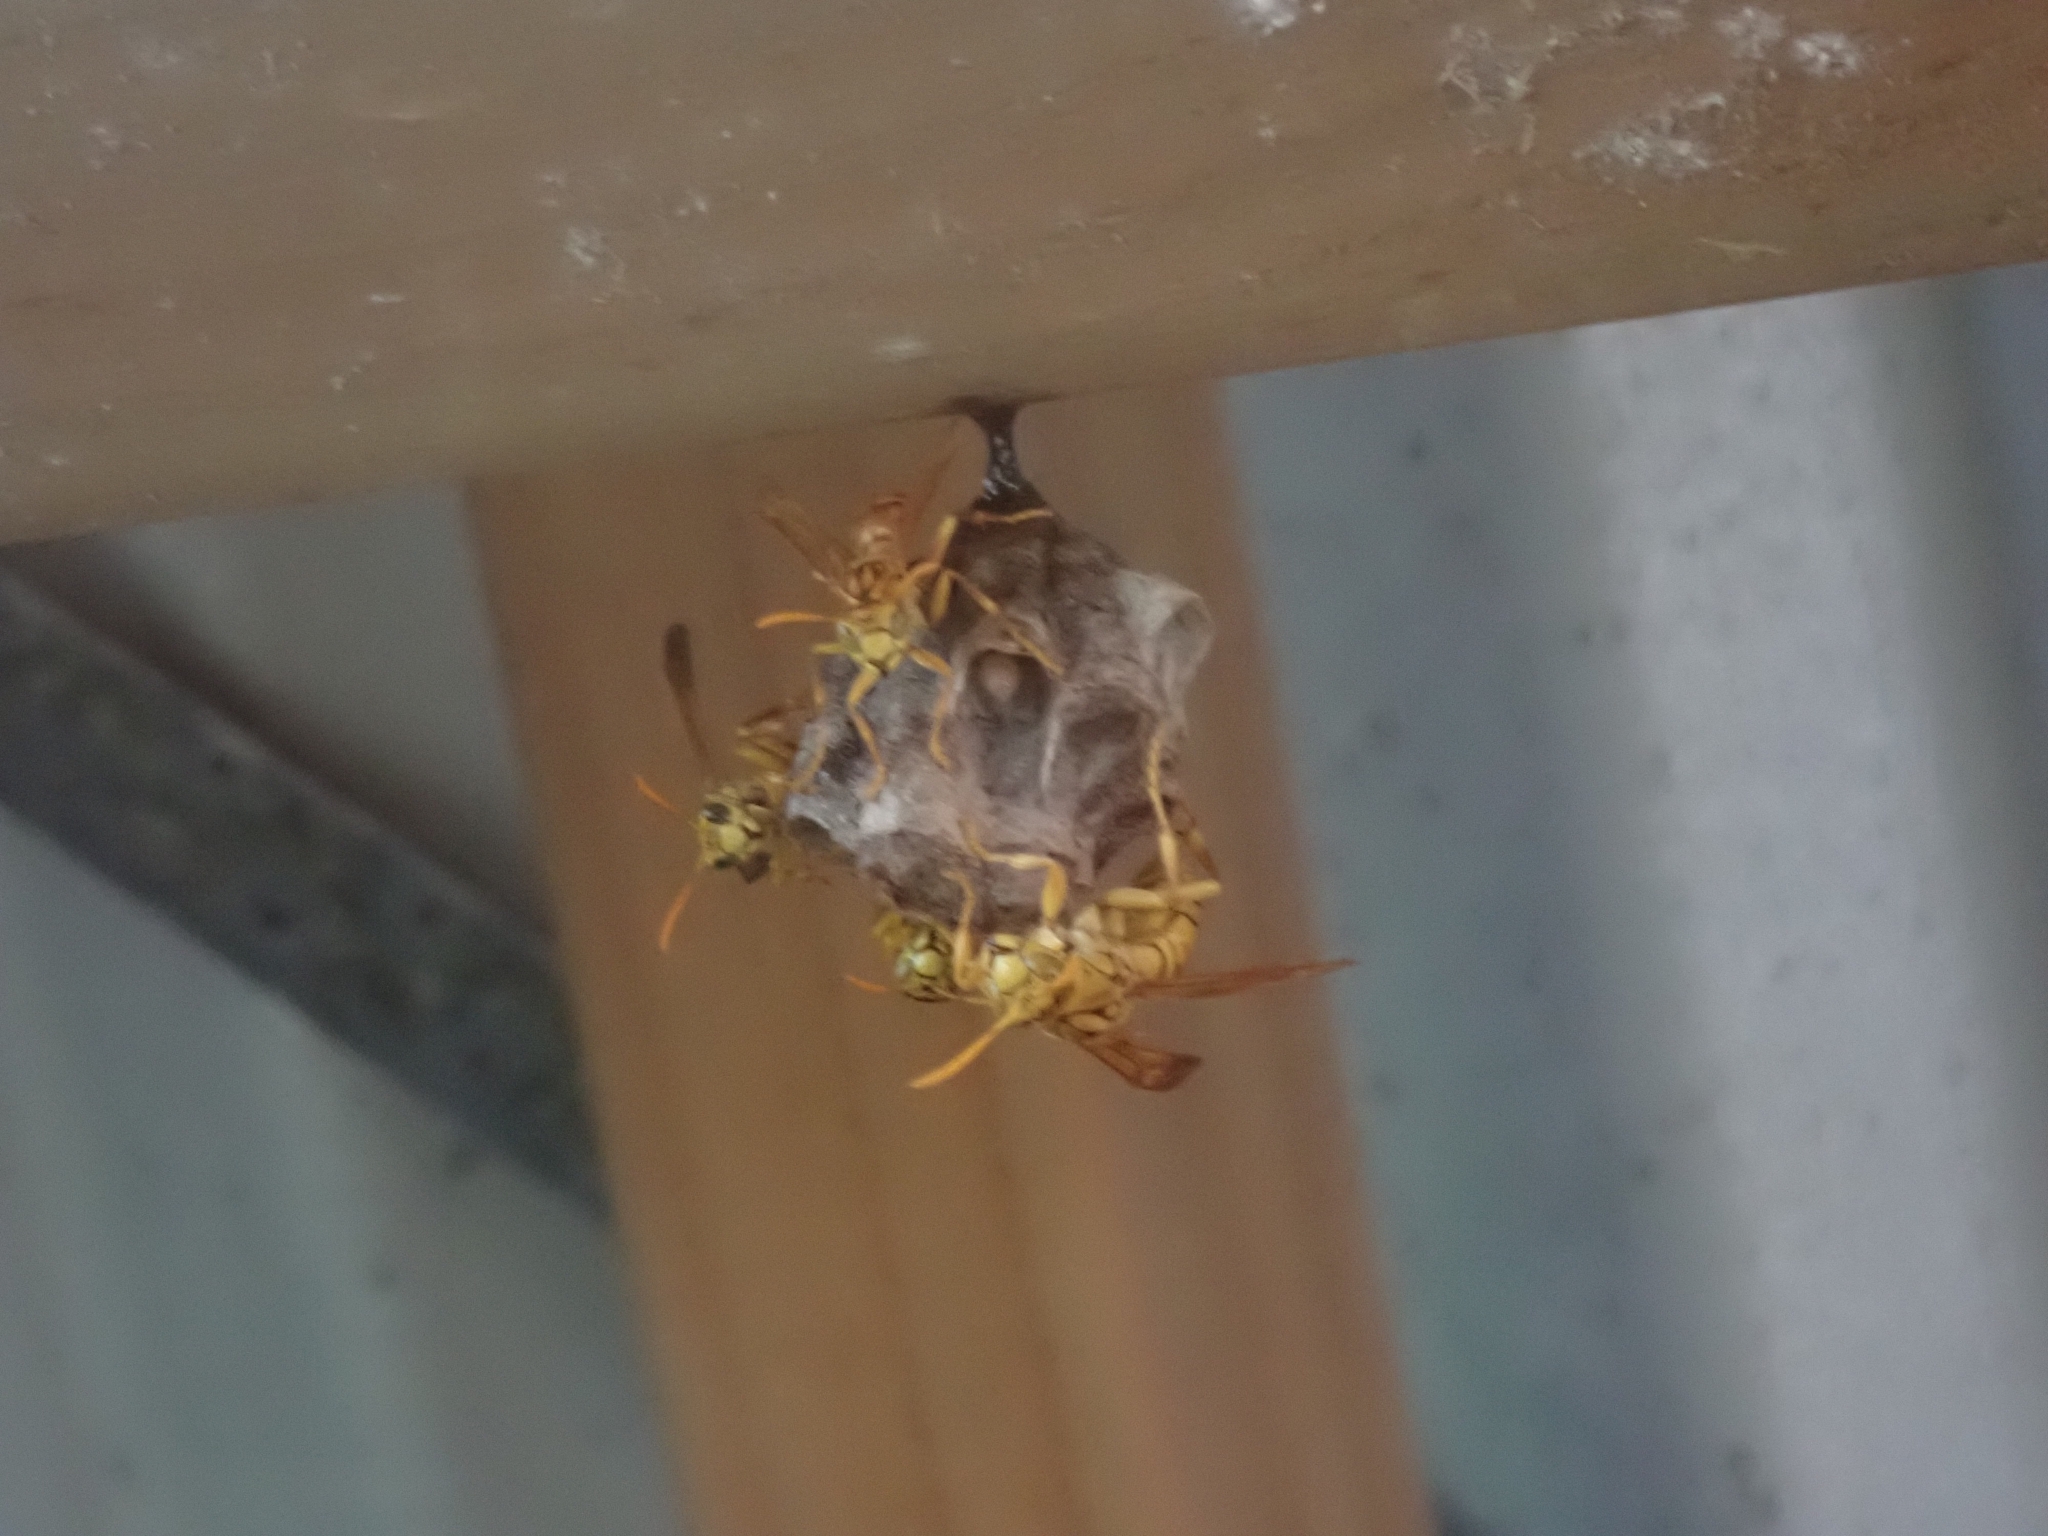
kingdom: Animalia
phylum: Arthropoda
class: Insecta
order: Hymenoptera
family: Eumenidae
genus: Polistes
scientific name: Polistes olivaceus
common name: Paper wasp
